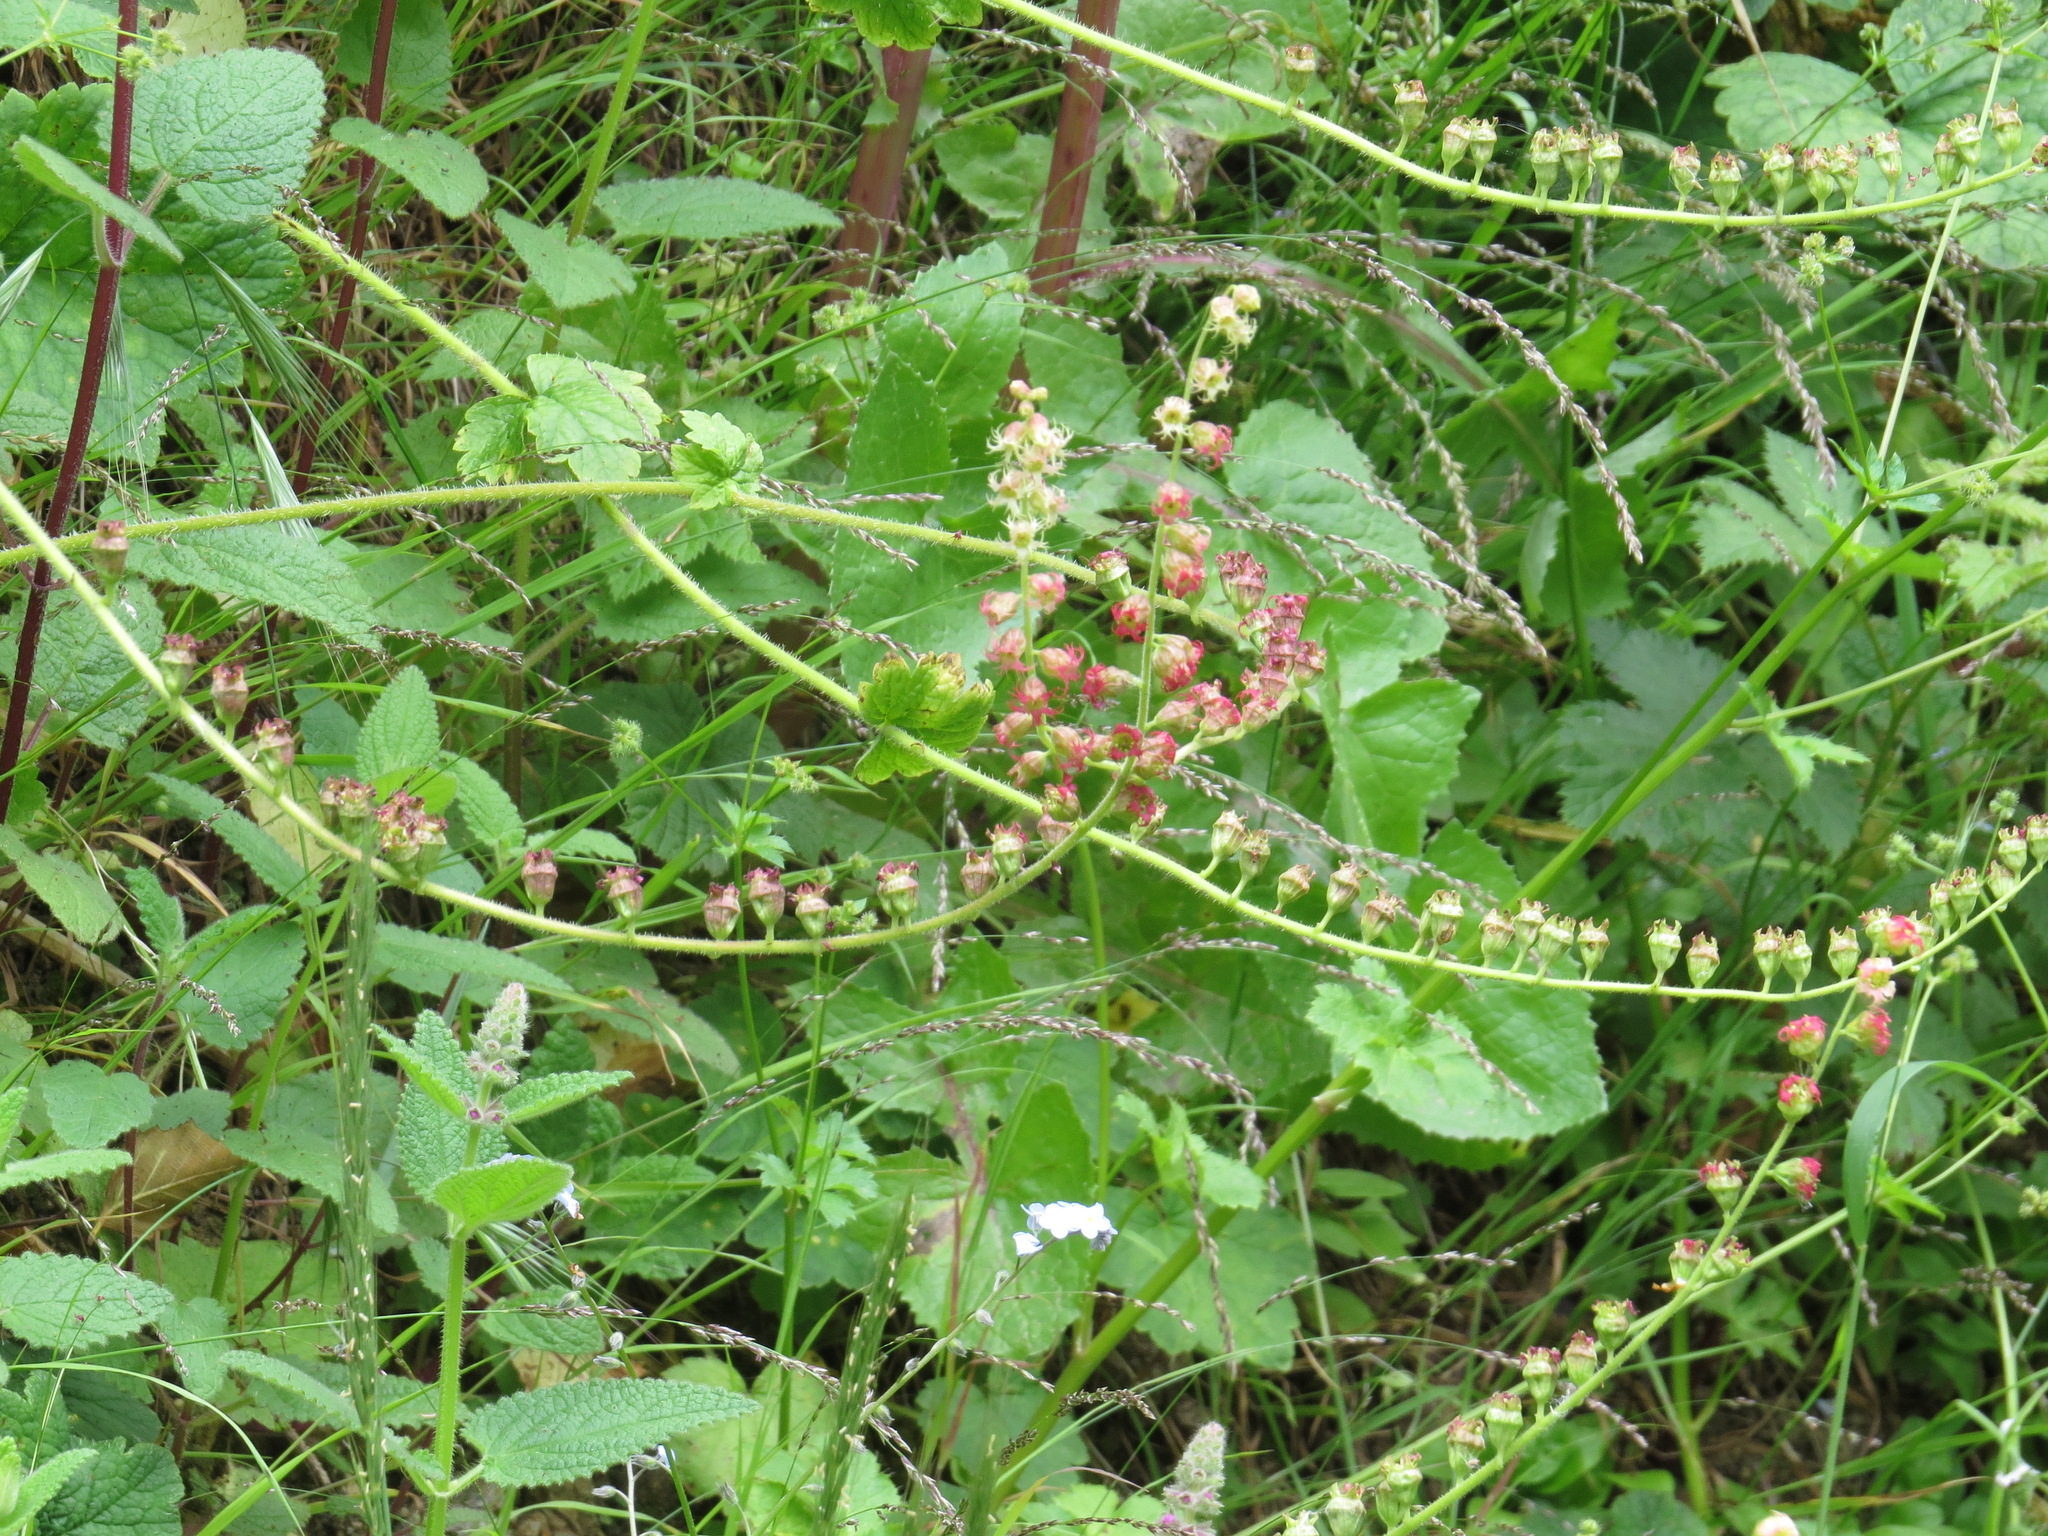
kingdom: Plantae
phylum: Tracheophyta
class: Magnoliopsida
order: Saxifragales
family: Saxifragaceae
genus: Tellima
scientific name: Tellima grandiflora
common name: Fringecups
